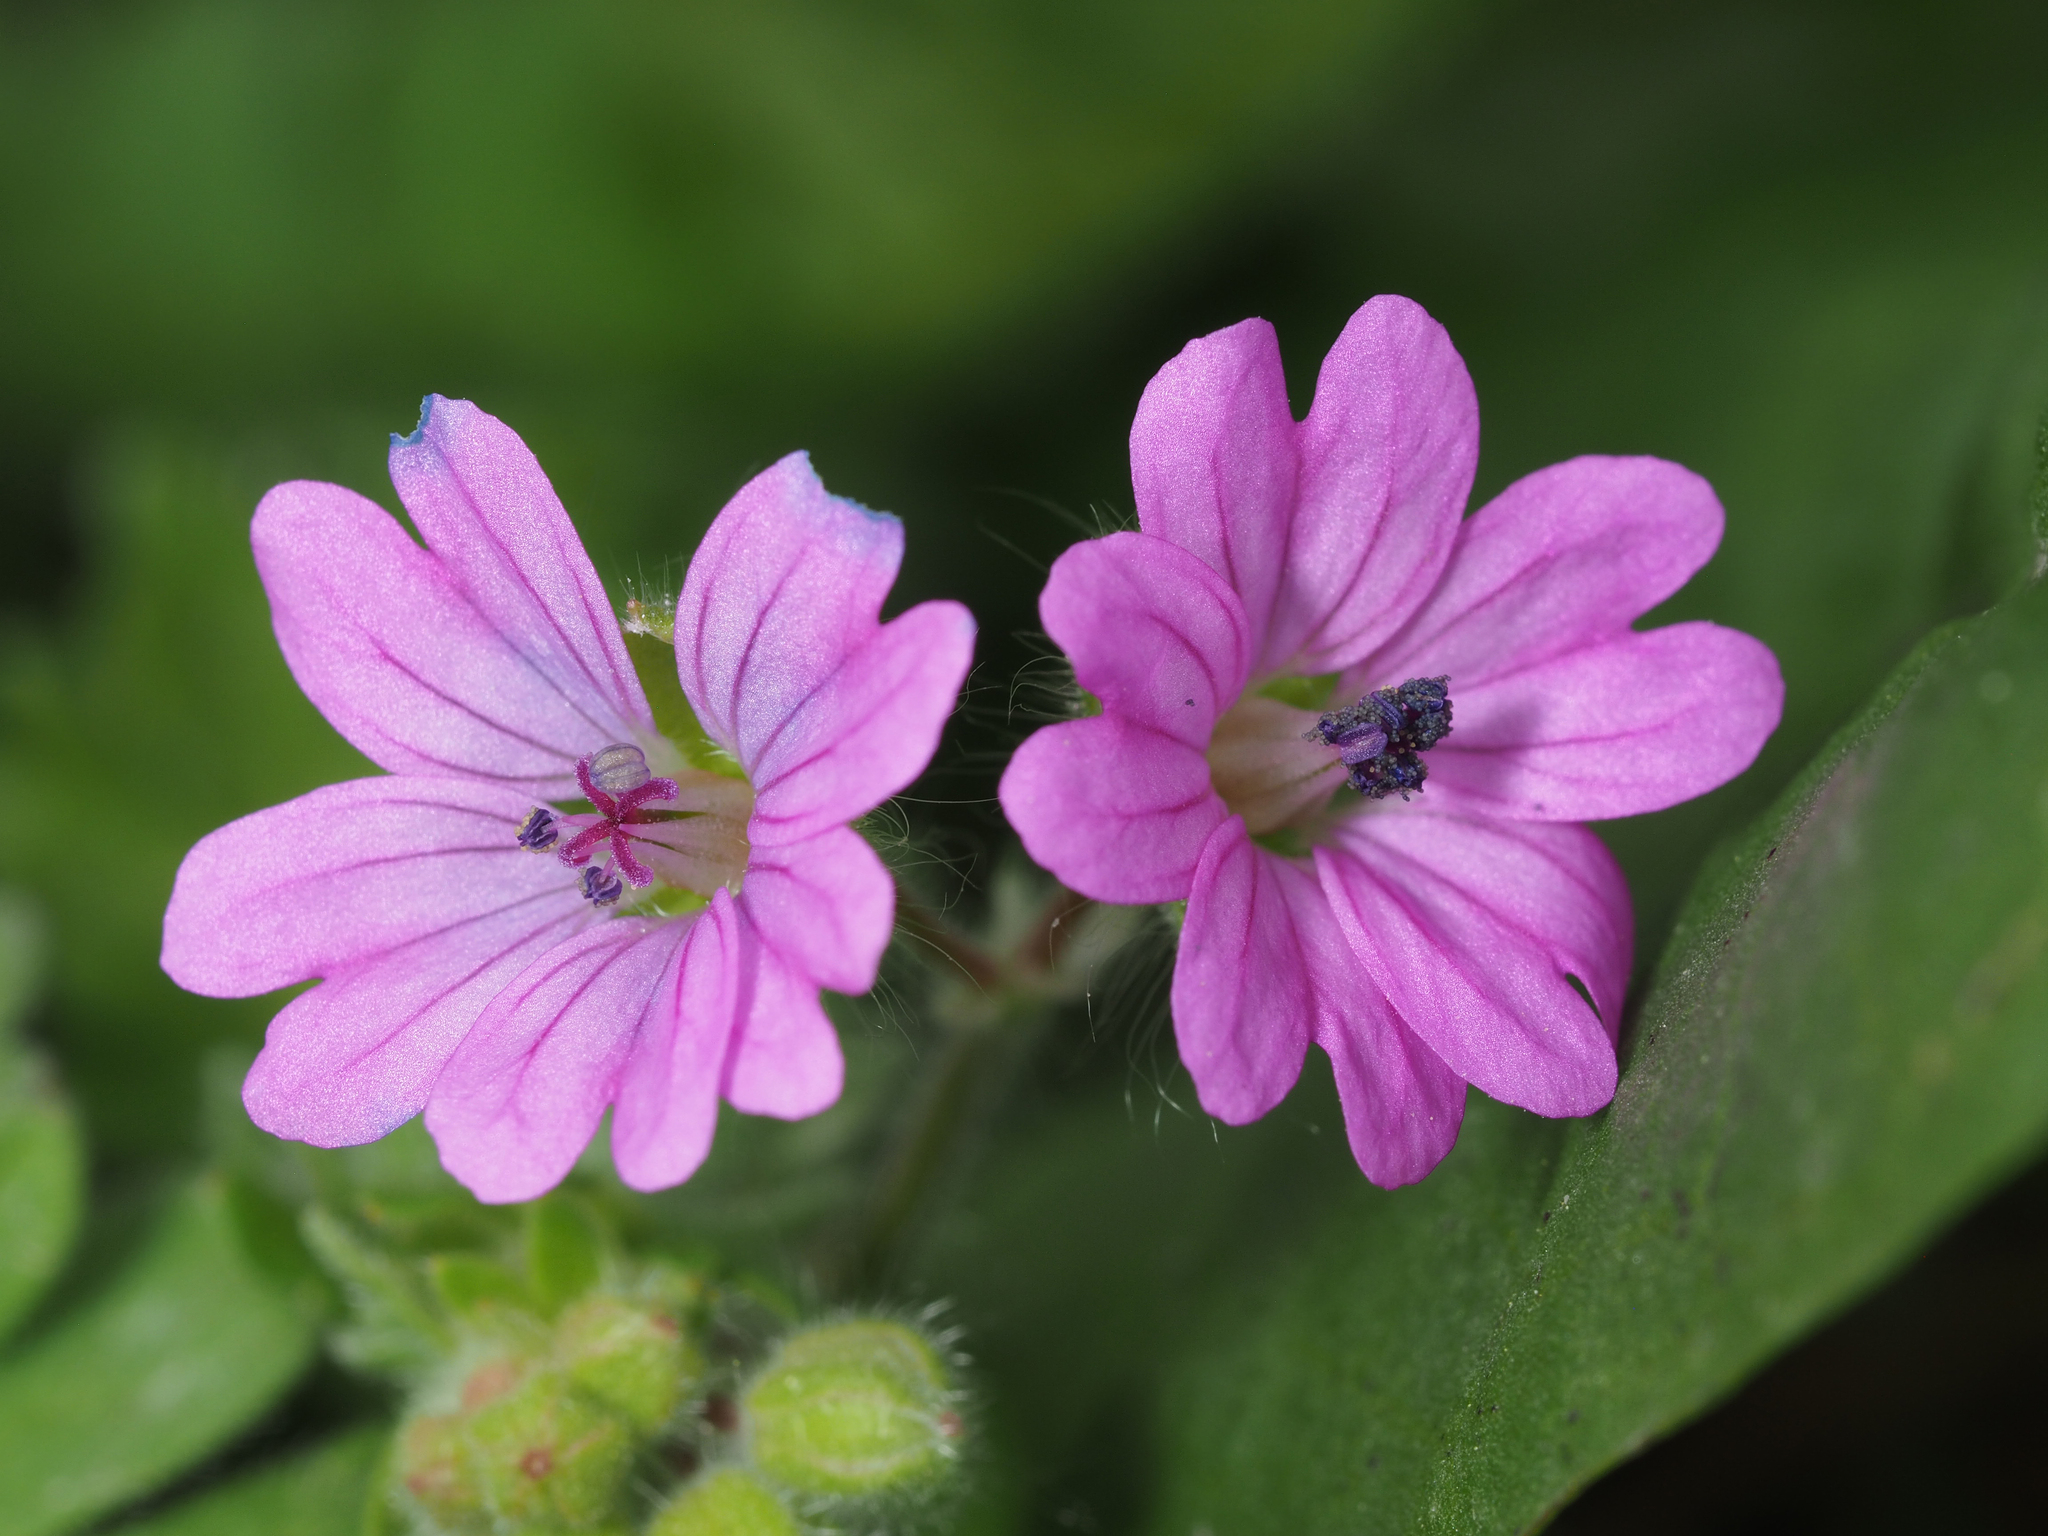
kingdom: Plantae
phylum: Tracheophyta
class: Magnoliopsida
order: Geraniales
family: Geraniaceae
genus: Geranium
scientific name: Geranium molle
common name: Dove's-foot crane's-bill
